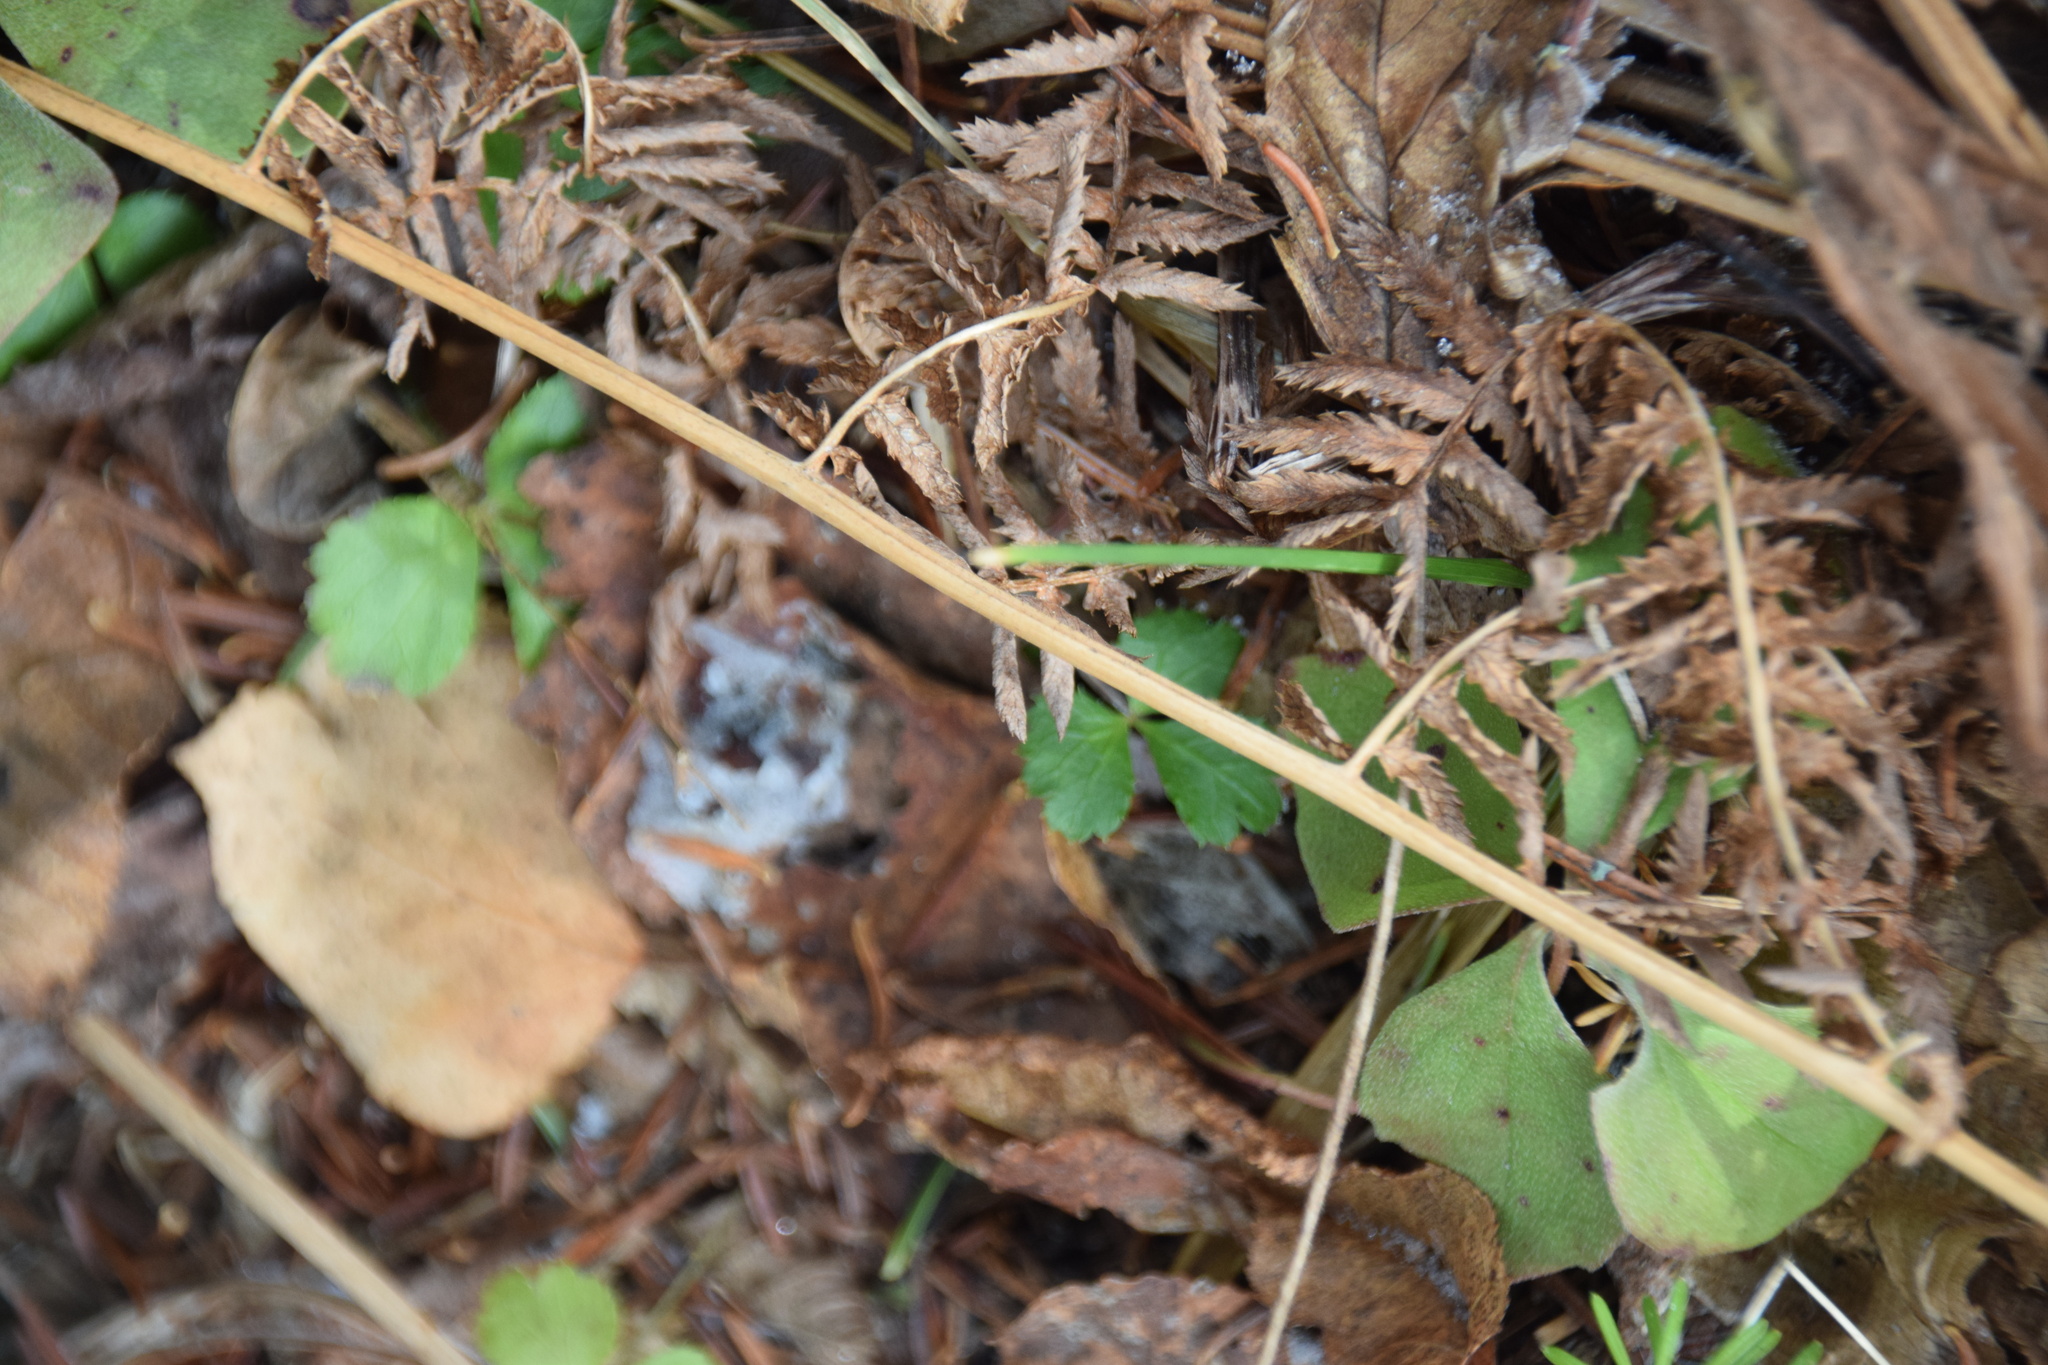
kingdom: Plantae
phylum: Tracheophyta
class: Magnoliopsida
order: Cornales
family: Cornaceae
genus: Cornus
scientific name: Cornus canadensis
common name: Creeping dogwood
